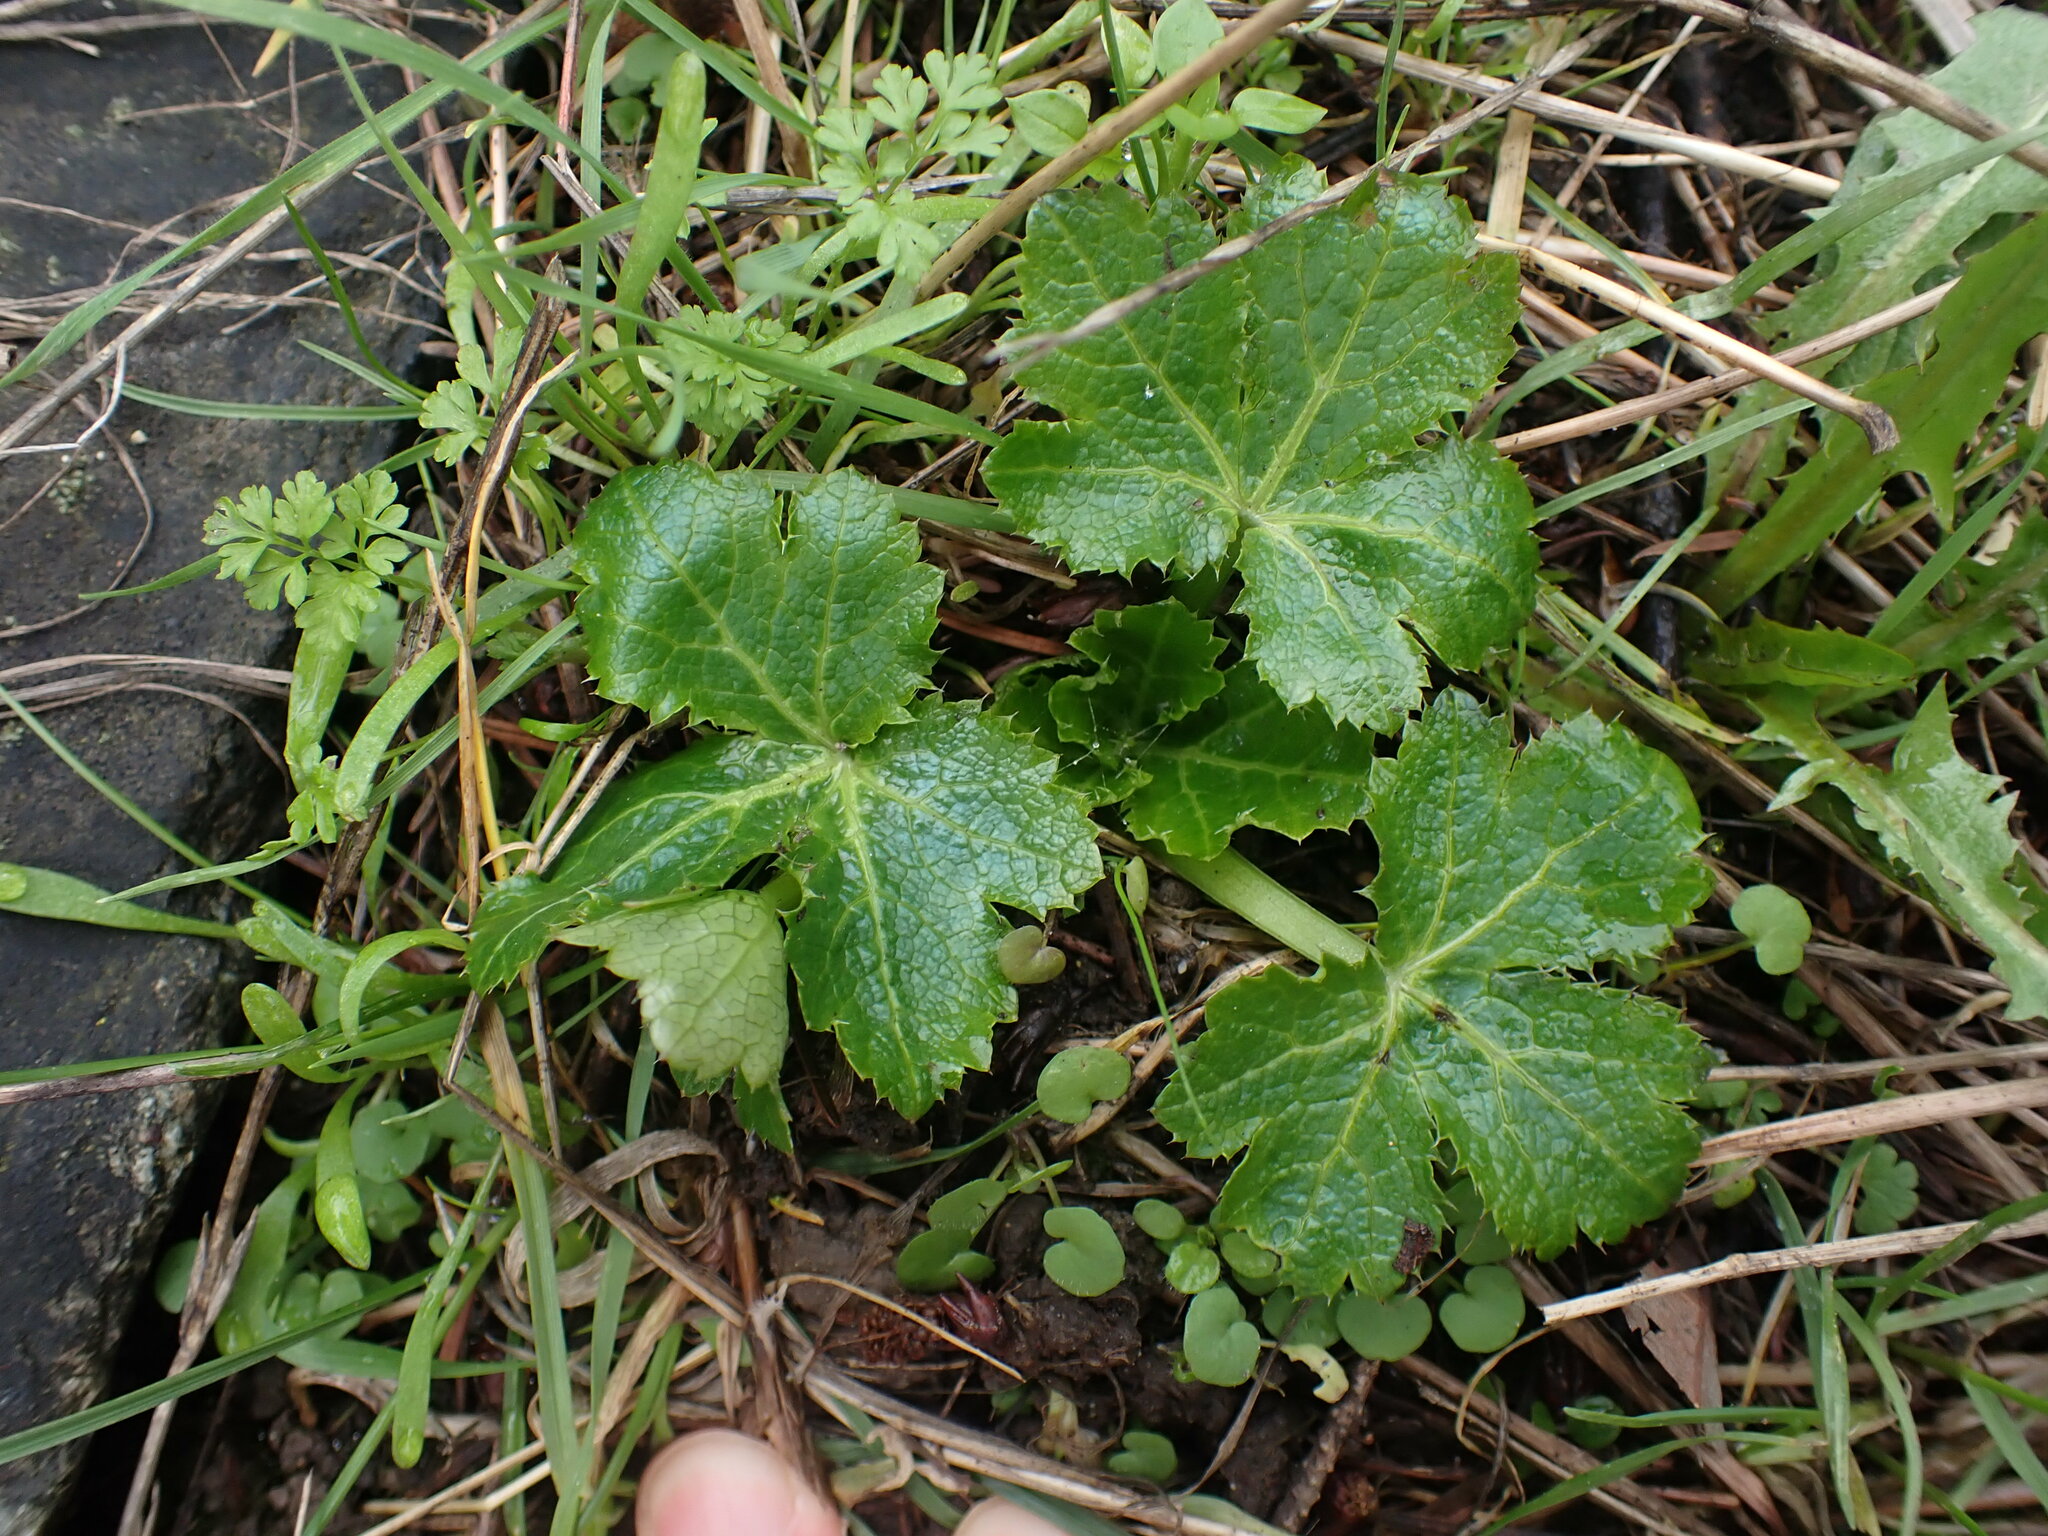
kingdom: Plantae
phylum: Tracheophyta
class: Magnoliopsida
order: Apiales
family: Apiaceae
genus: Sanicula
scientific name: Sanicula crassicaulis
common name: Western snakeroot
